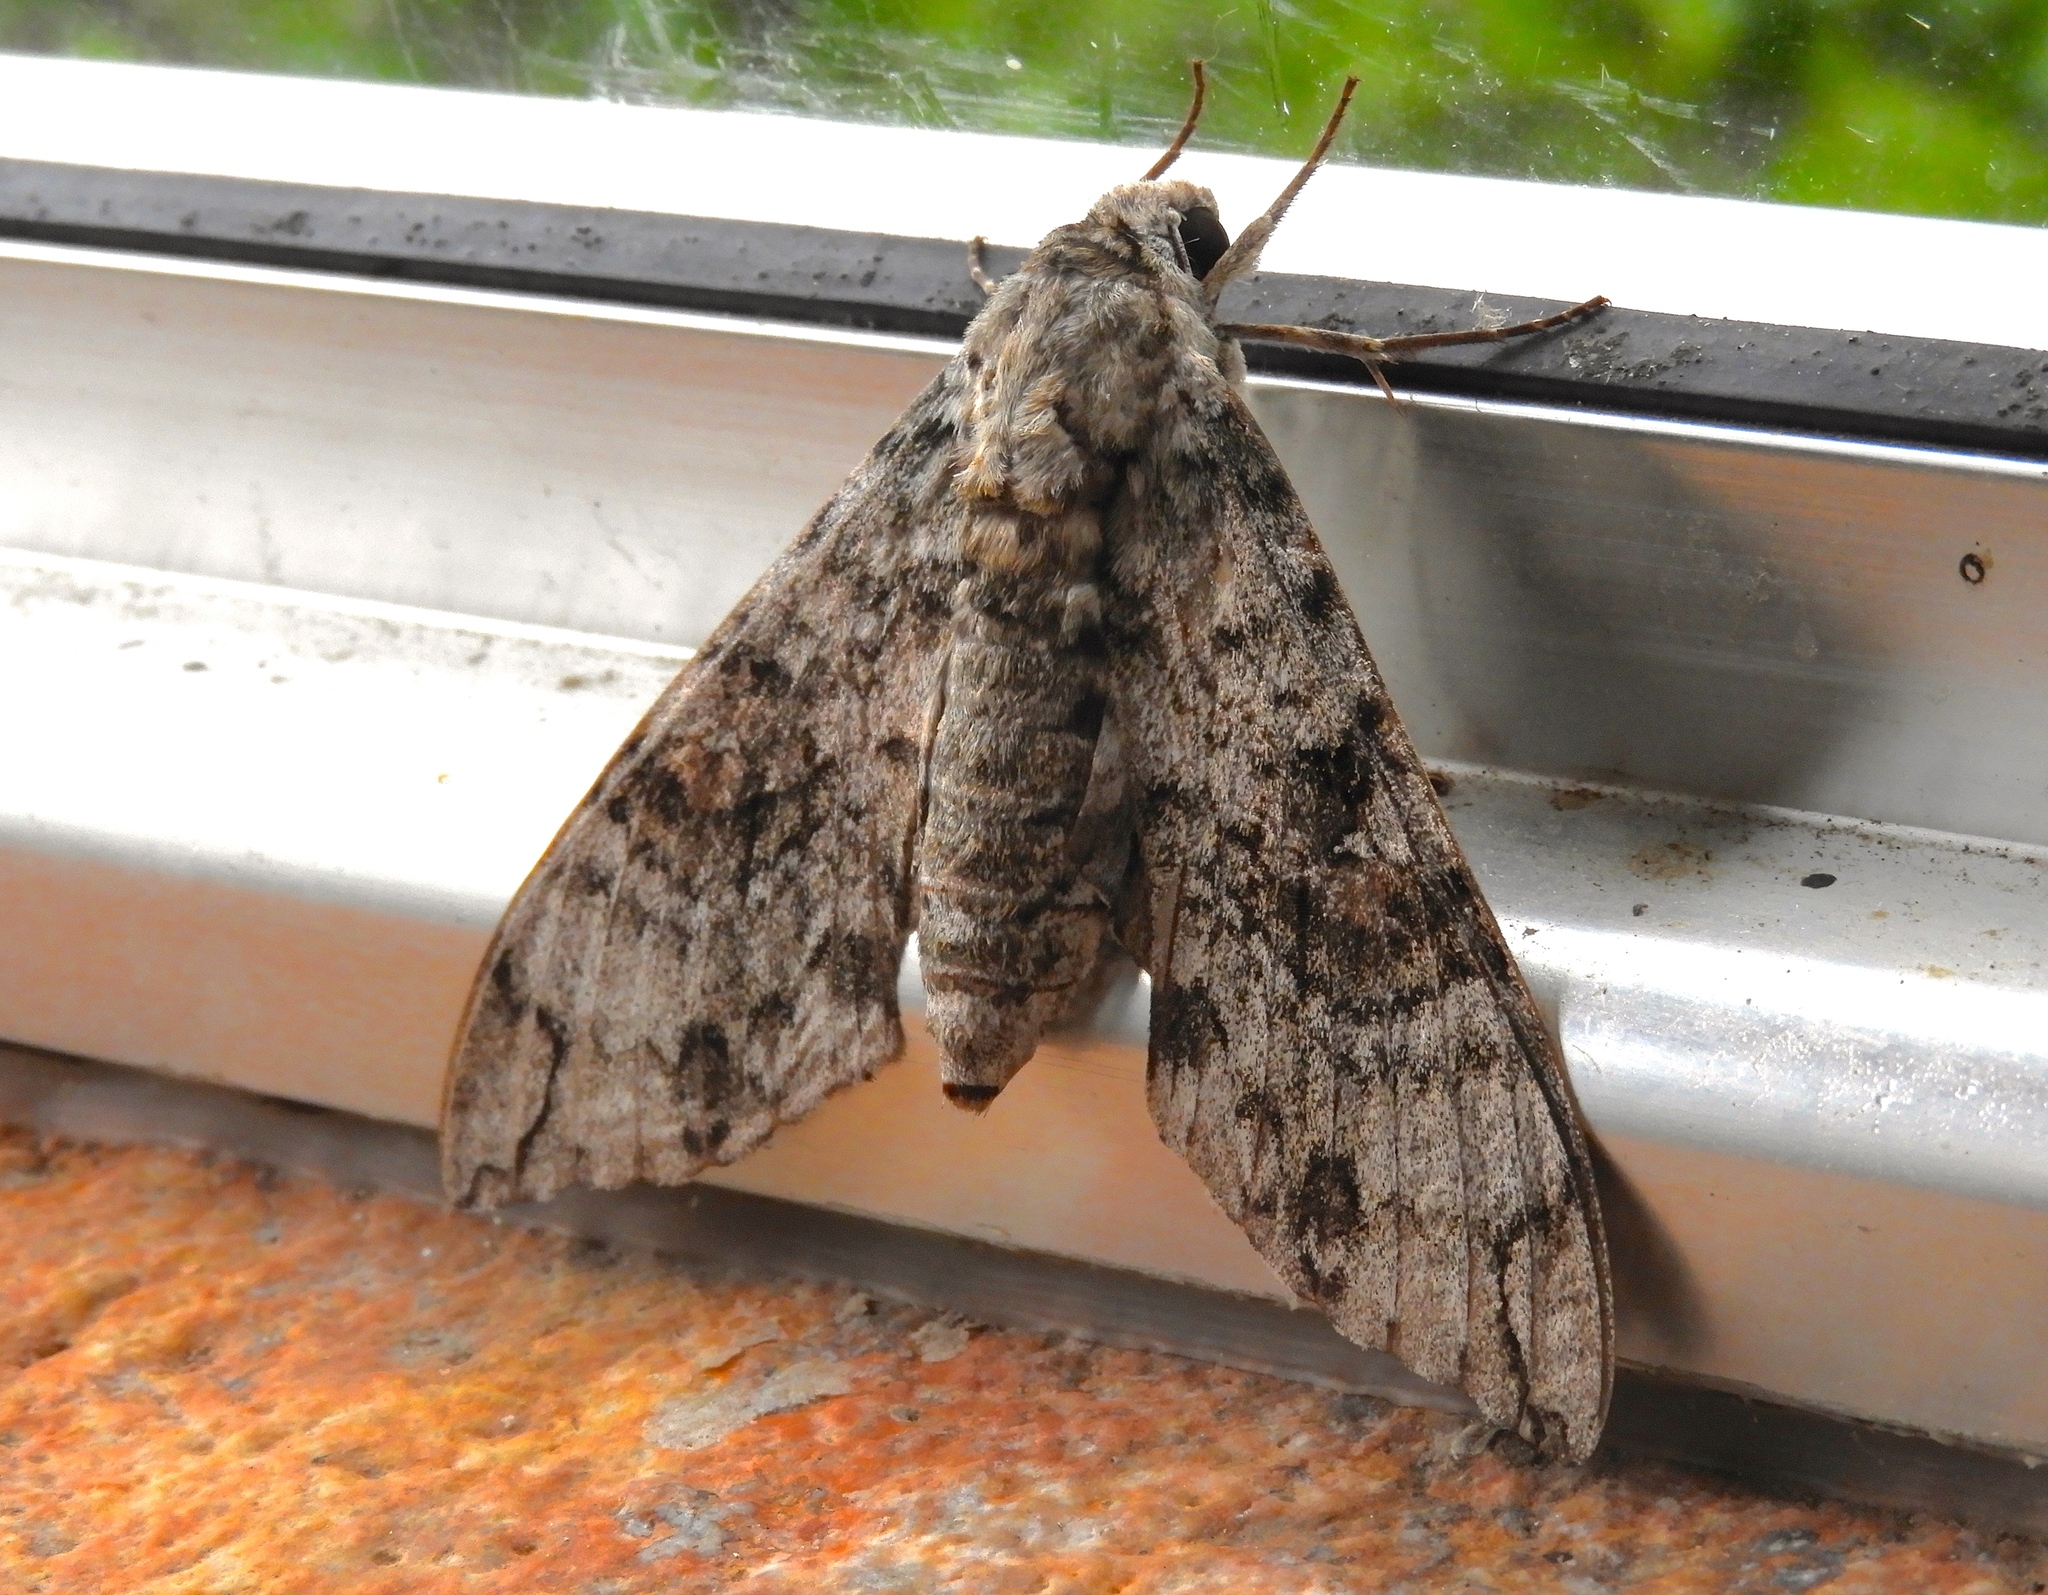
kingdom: Animalia
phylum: Arthropoda
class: Insecta
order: Lepidoptera
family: Sphingidae
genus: Pseudosphinx
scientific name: Pseudosphinx tetrio
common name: Tetrio sphinx
